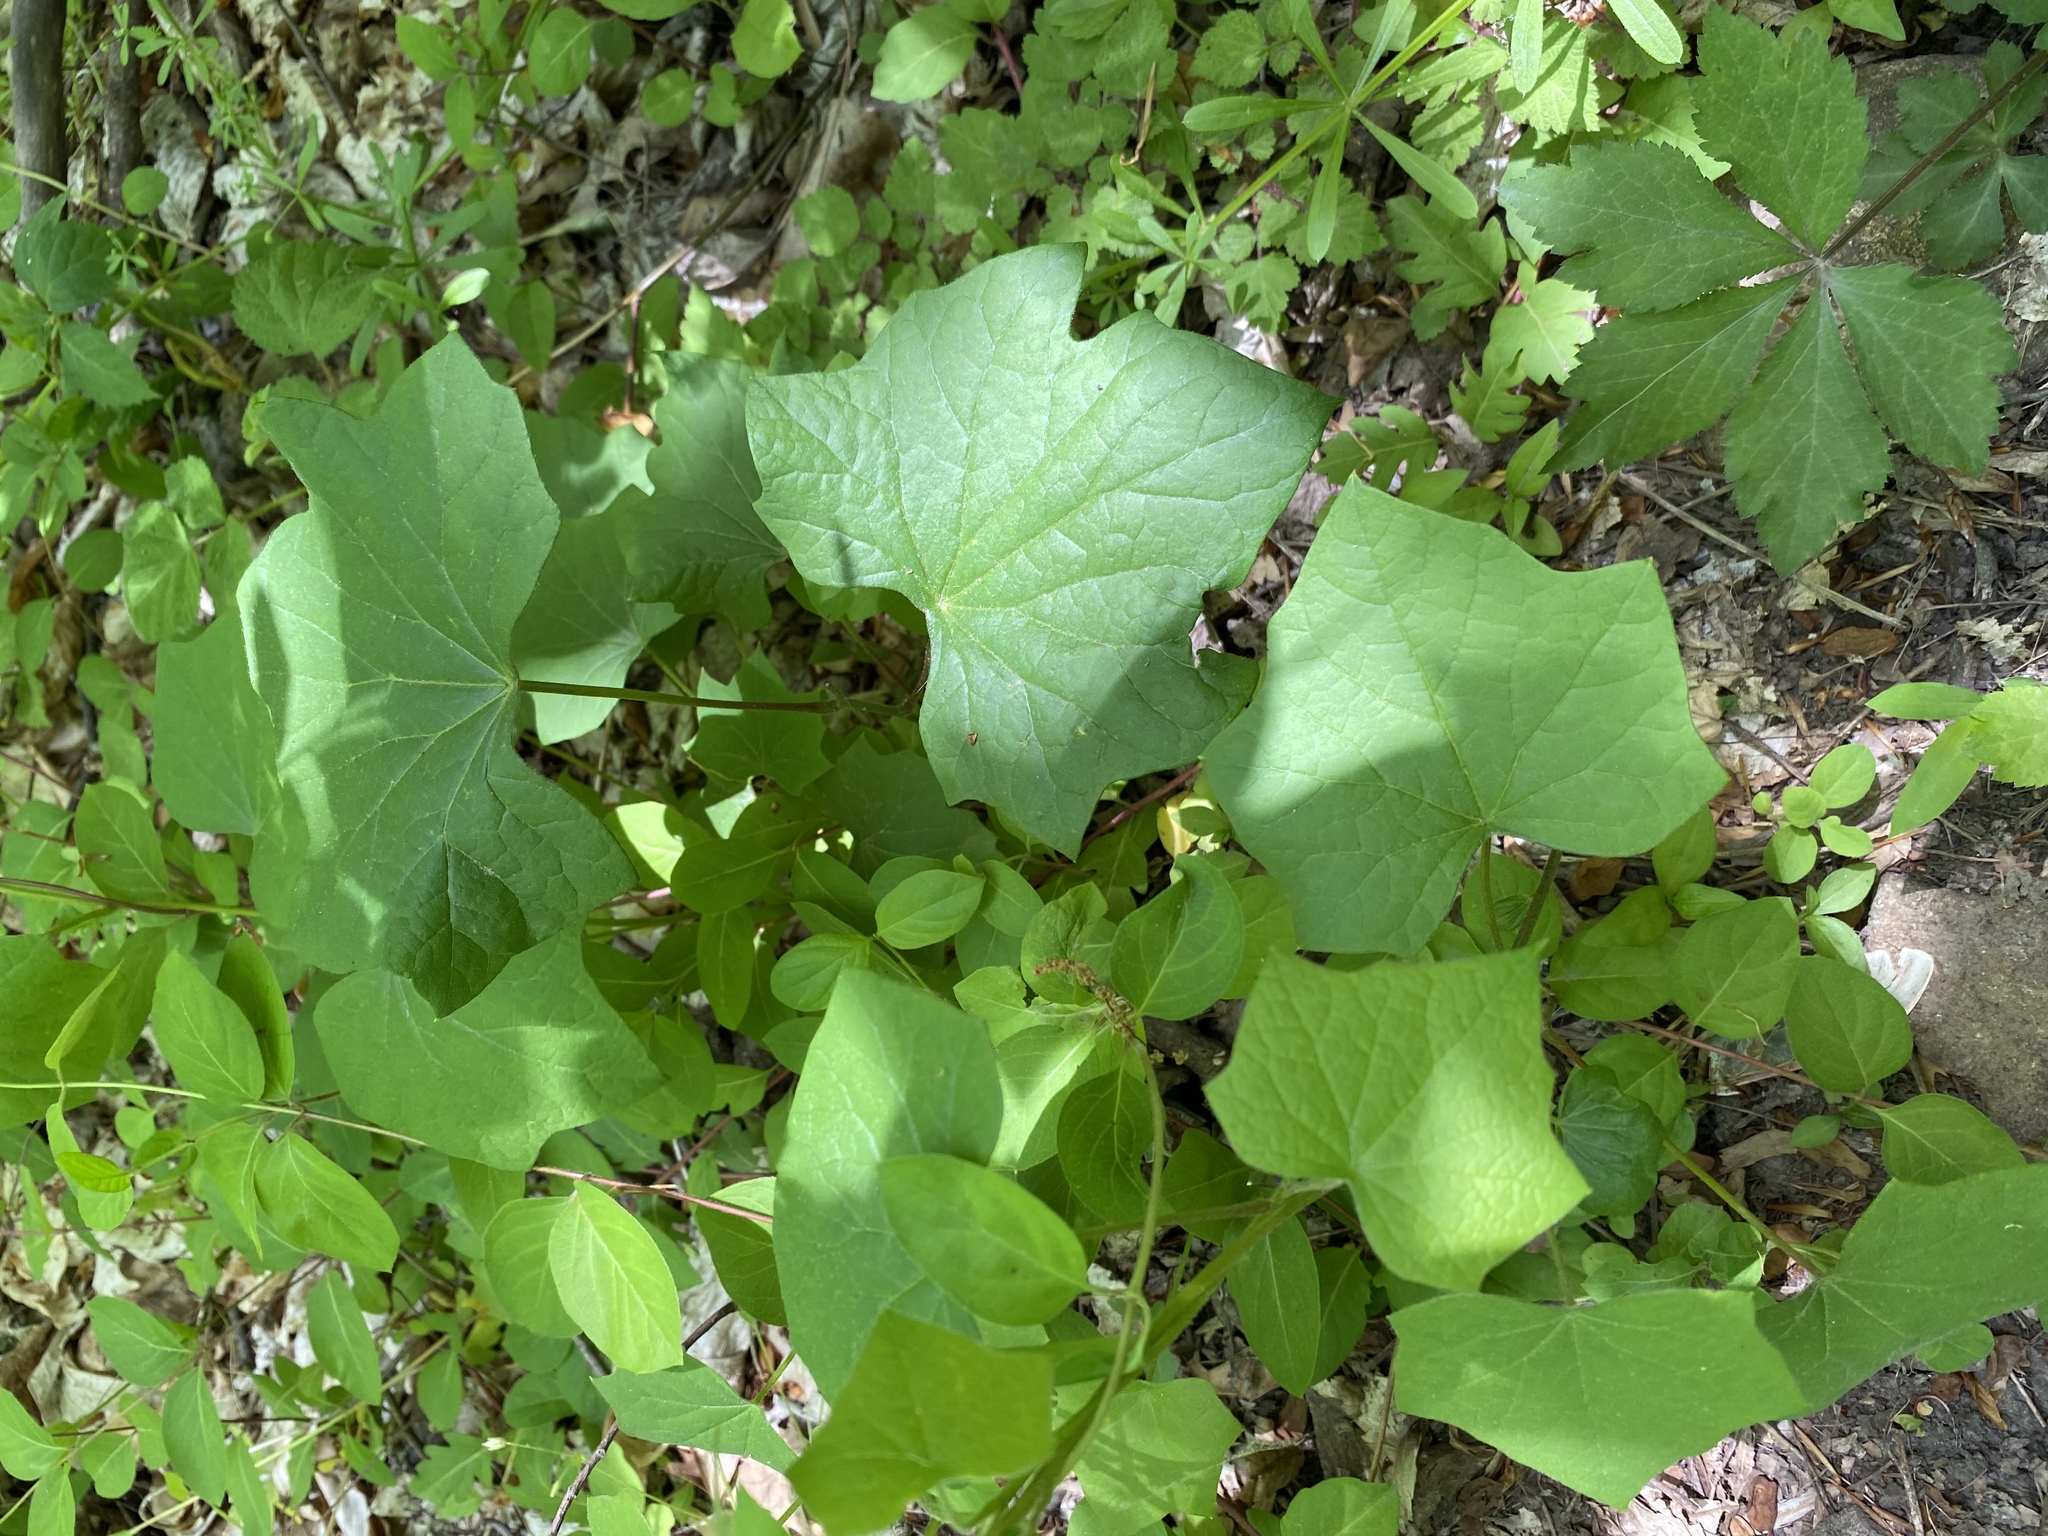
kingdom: Plantae
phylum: Tracheophyta
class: Magnoliopsida
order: Ranunculales
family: Menispermaceae
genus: Menispermum
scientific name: Menispermum canadense
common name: Moonseed
